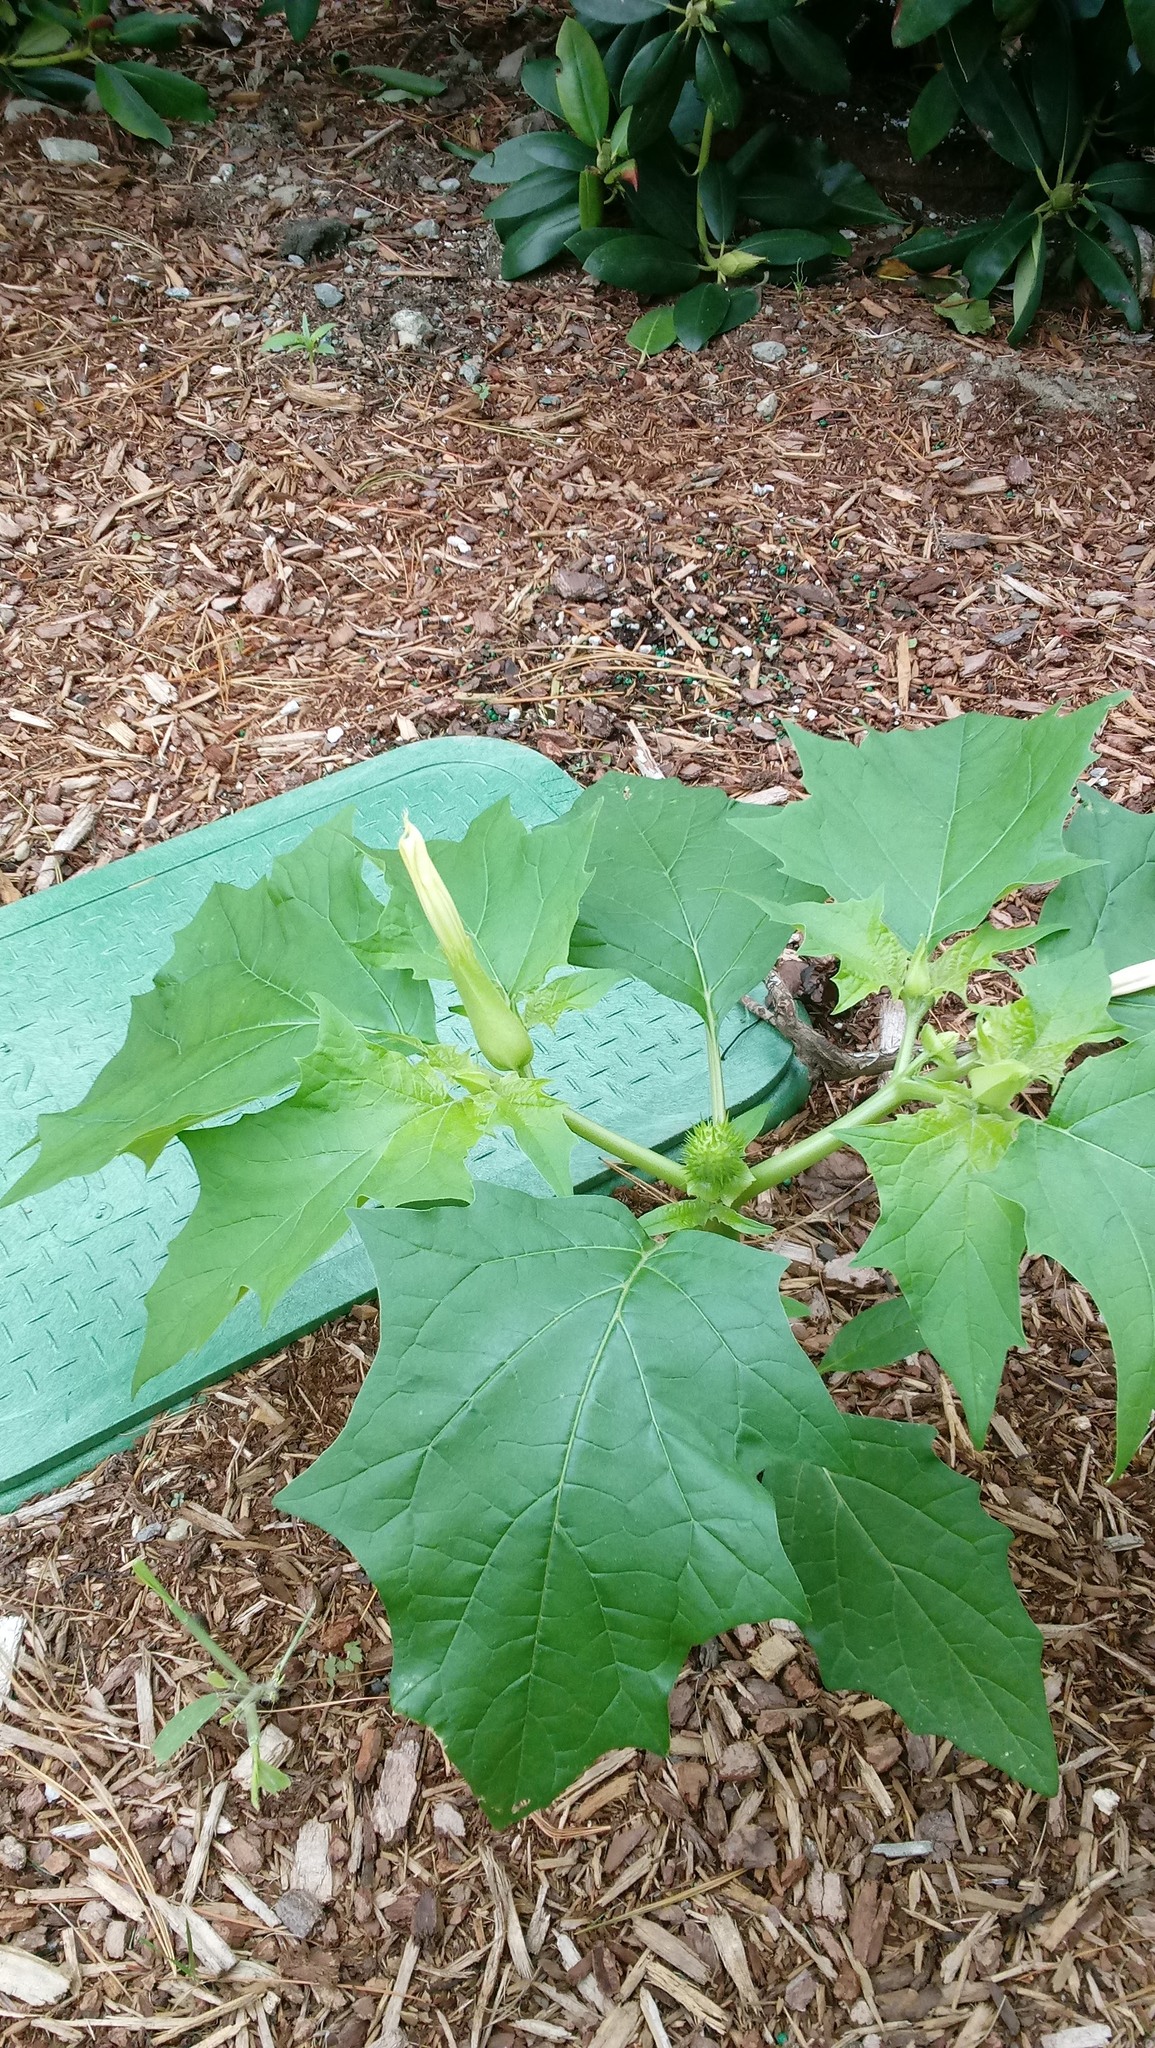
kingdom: Plantae
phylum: Tracheophyta
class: Magnoliopsida
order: Solanales
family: Solanaceae
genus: Datura
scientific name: Datura stramonium
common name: Thorn-apple
